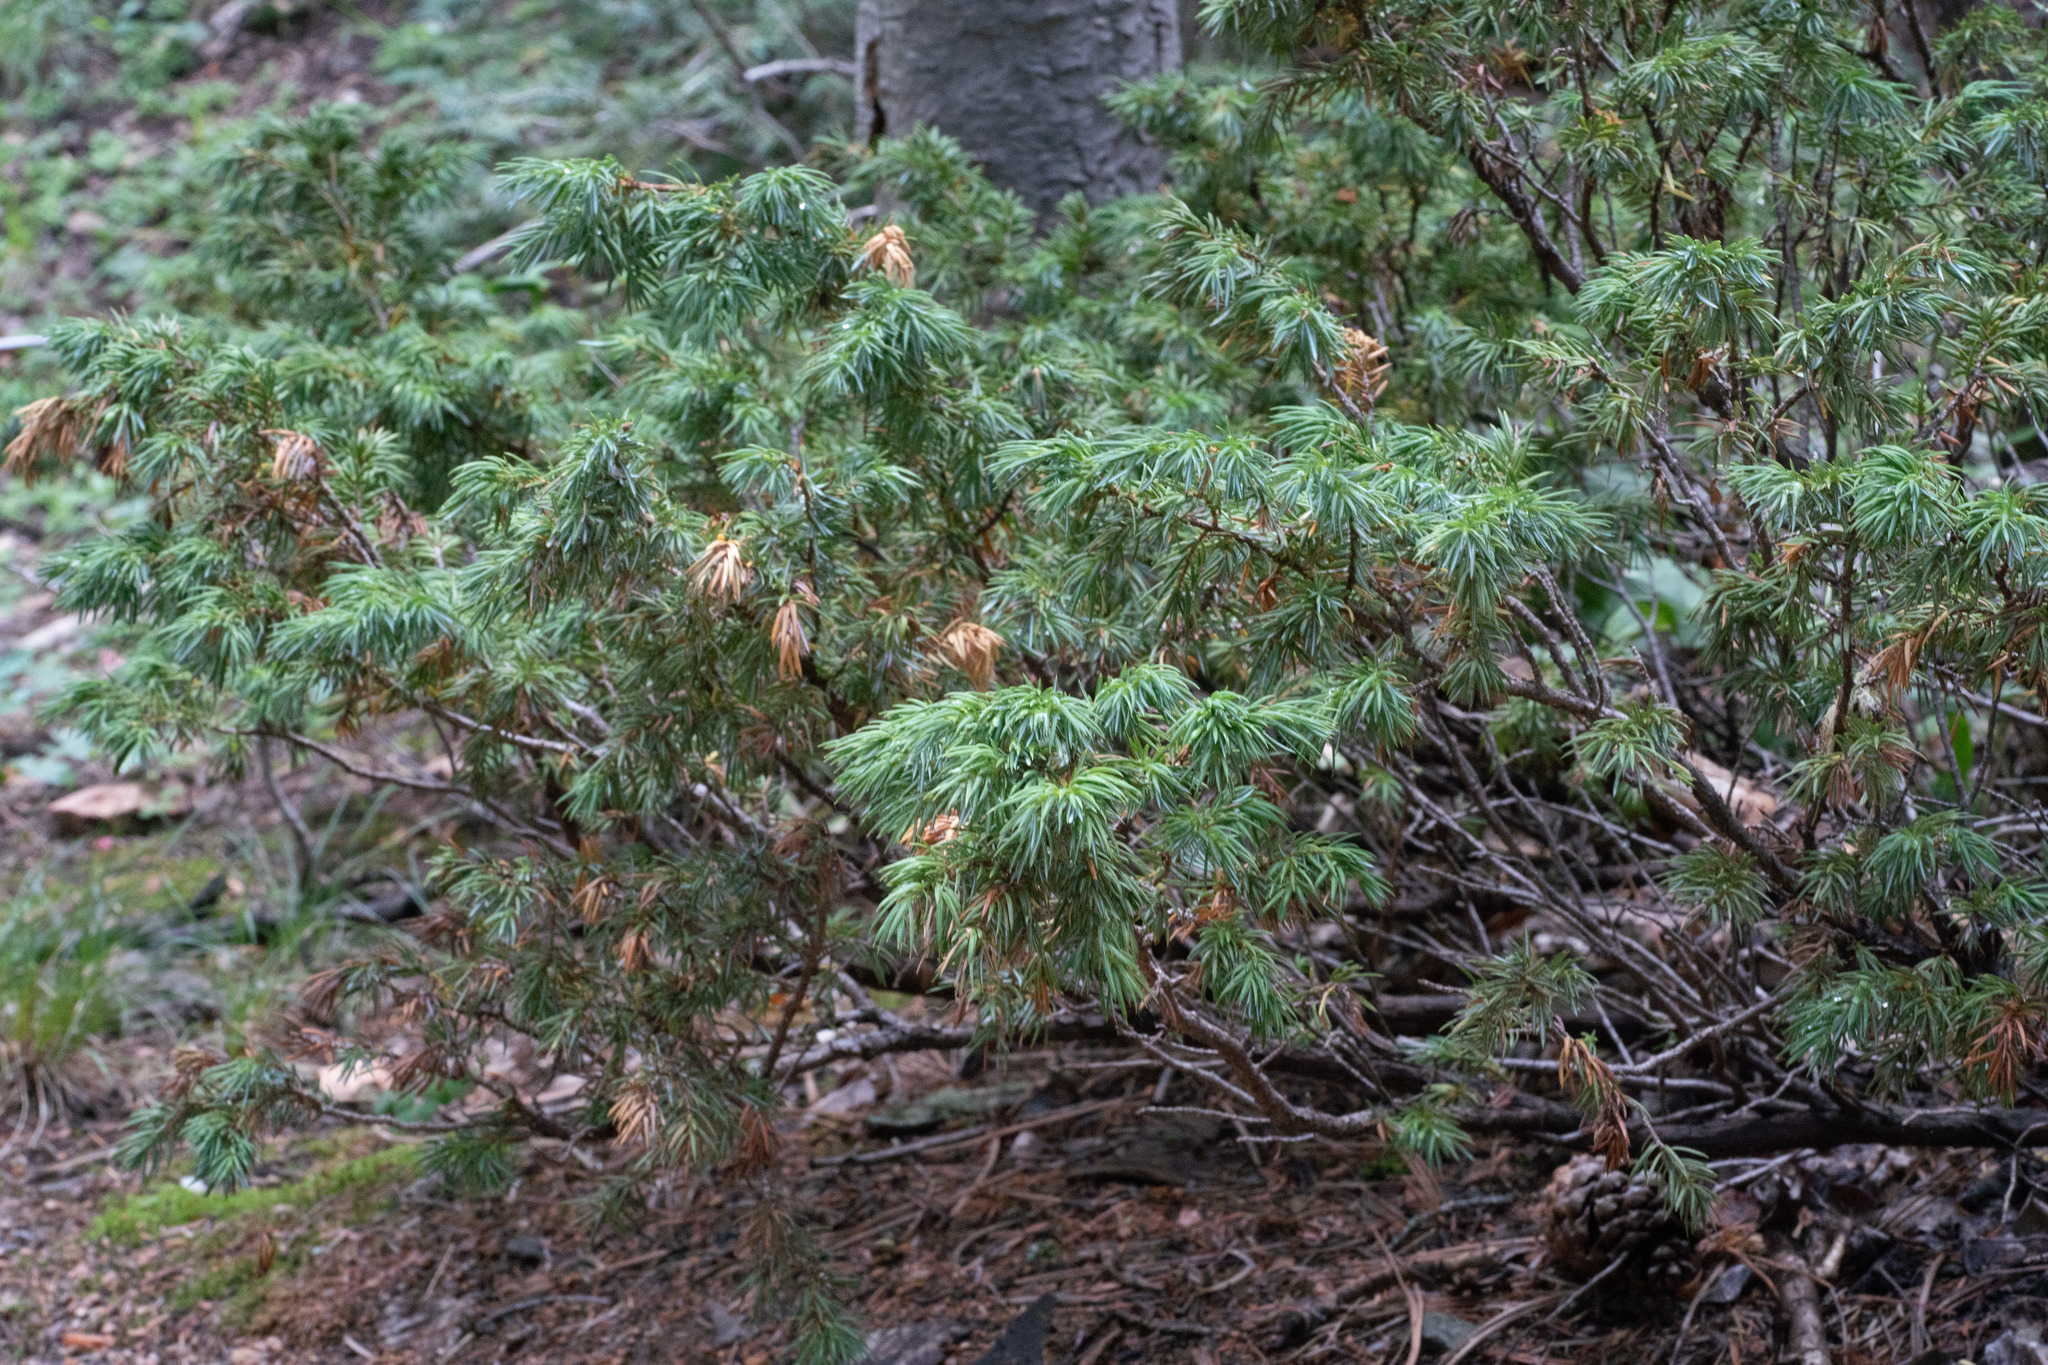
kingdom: Plantae
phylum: Tracheophyta
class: Pinopsida
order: Pinales
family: Cupressaceae
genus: Juniperus
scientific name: Juniperus communis
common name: Common juniper
